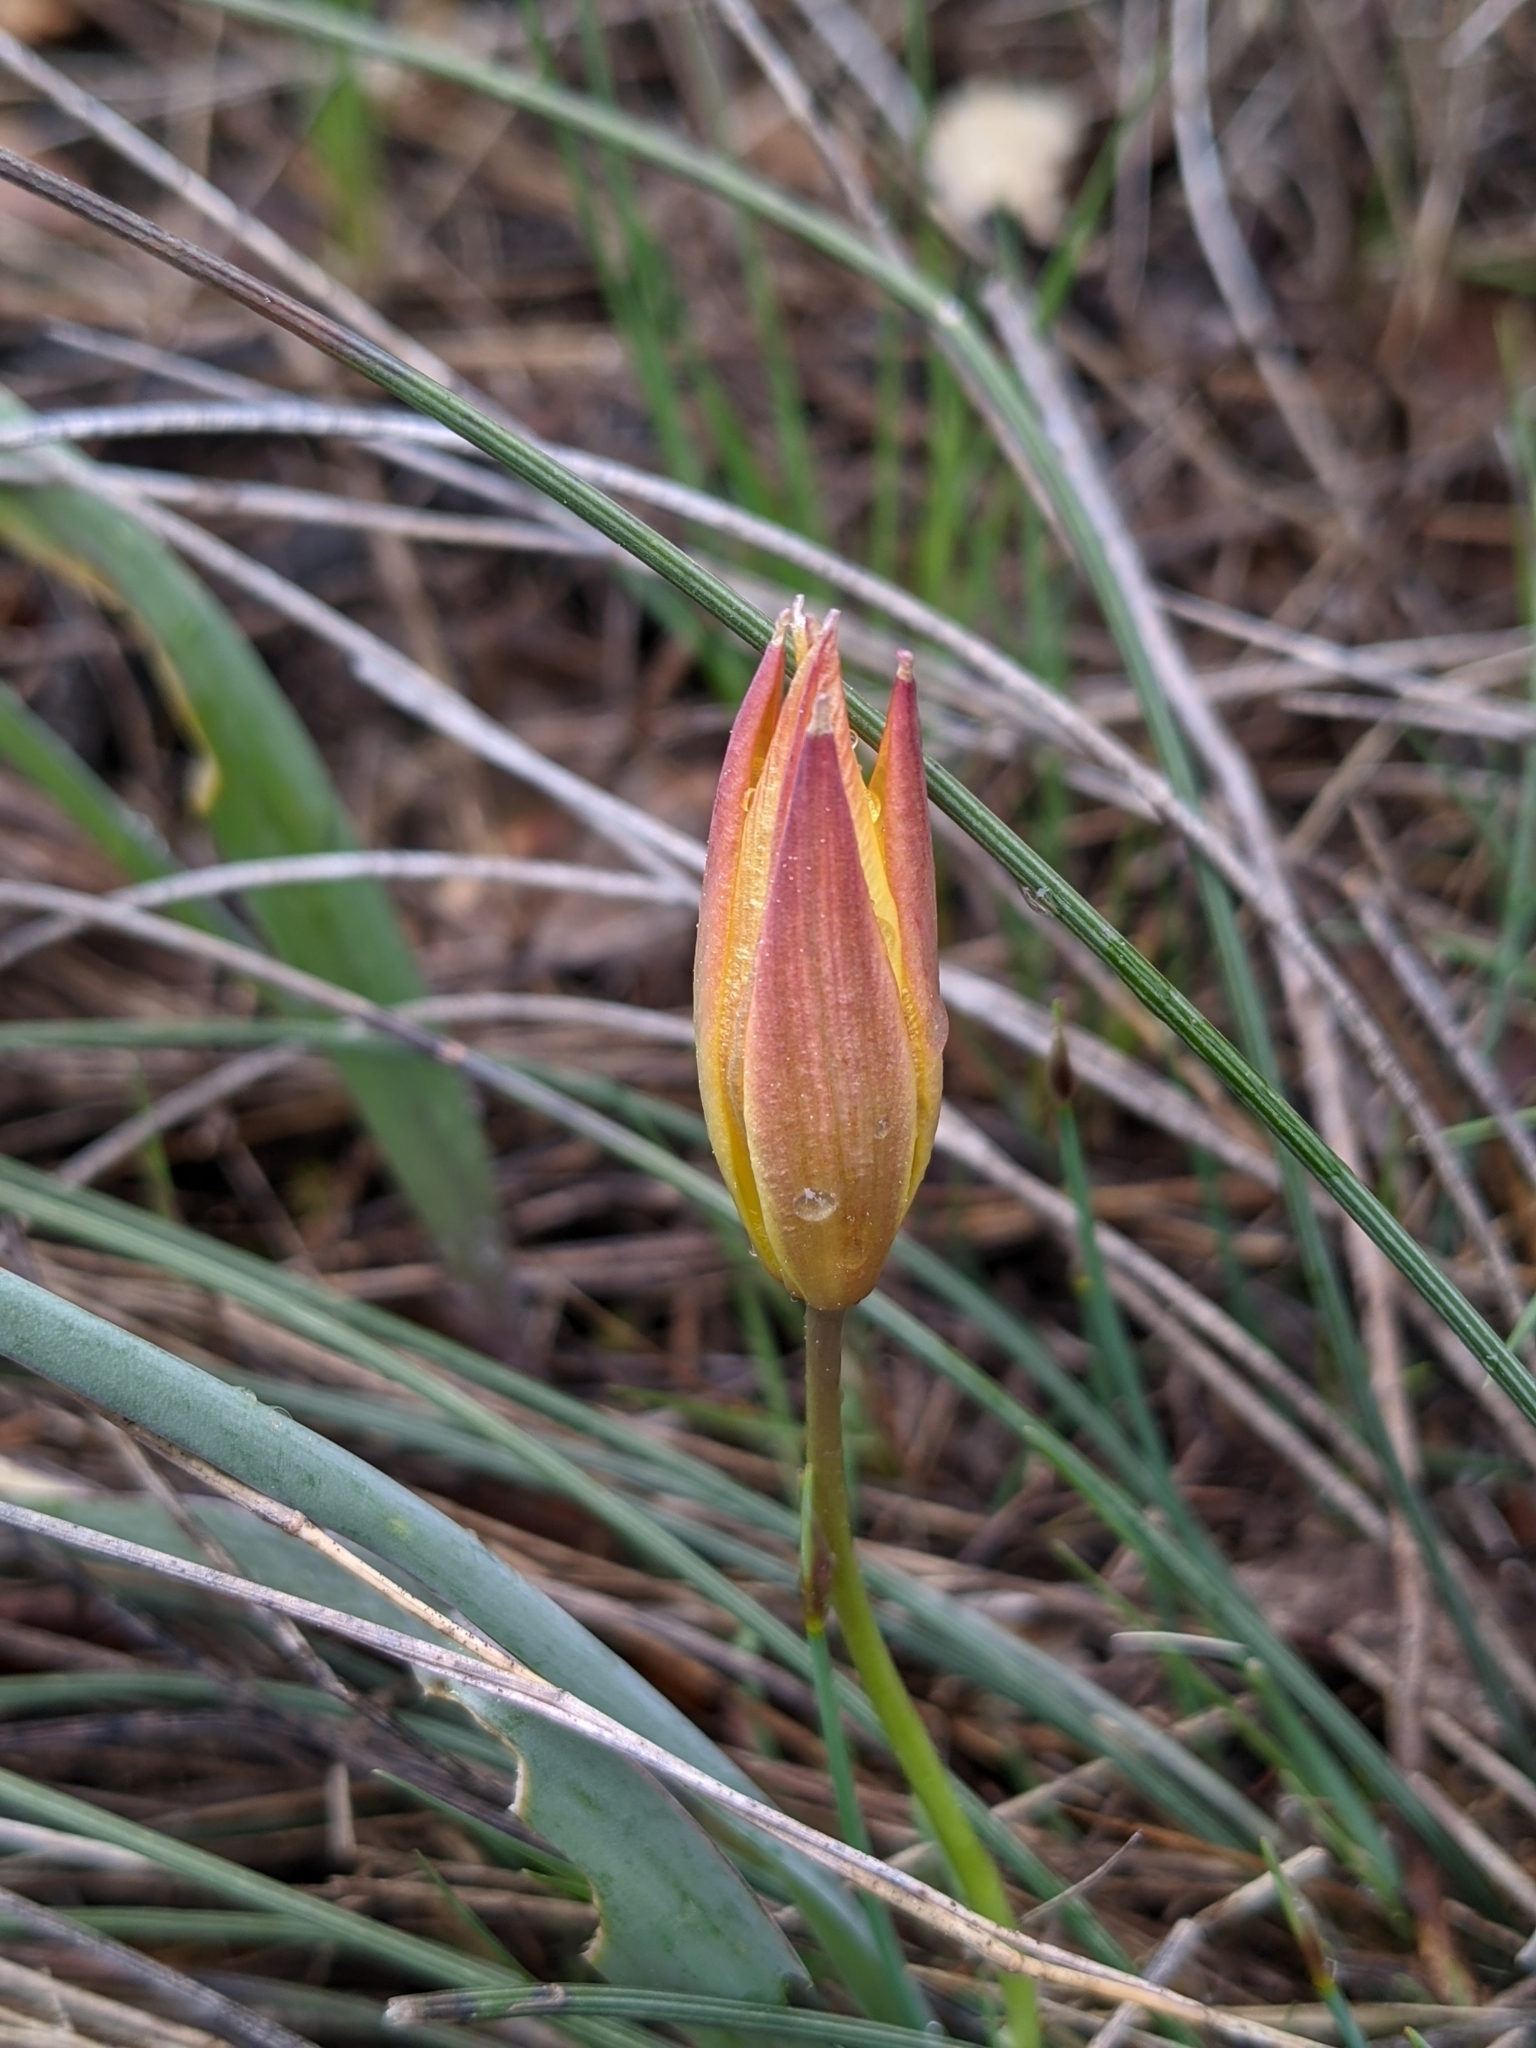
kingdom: Plantae
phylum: Tracheophyta
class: Liliopsida
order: Liliales
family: Liliaceae
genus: Tulipa
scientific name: Tulipa sylvestris
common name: Wild tulip
